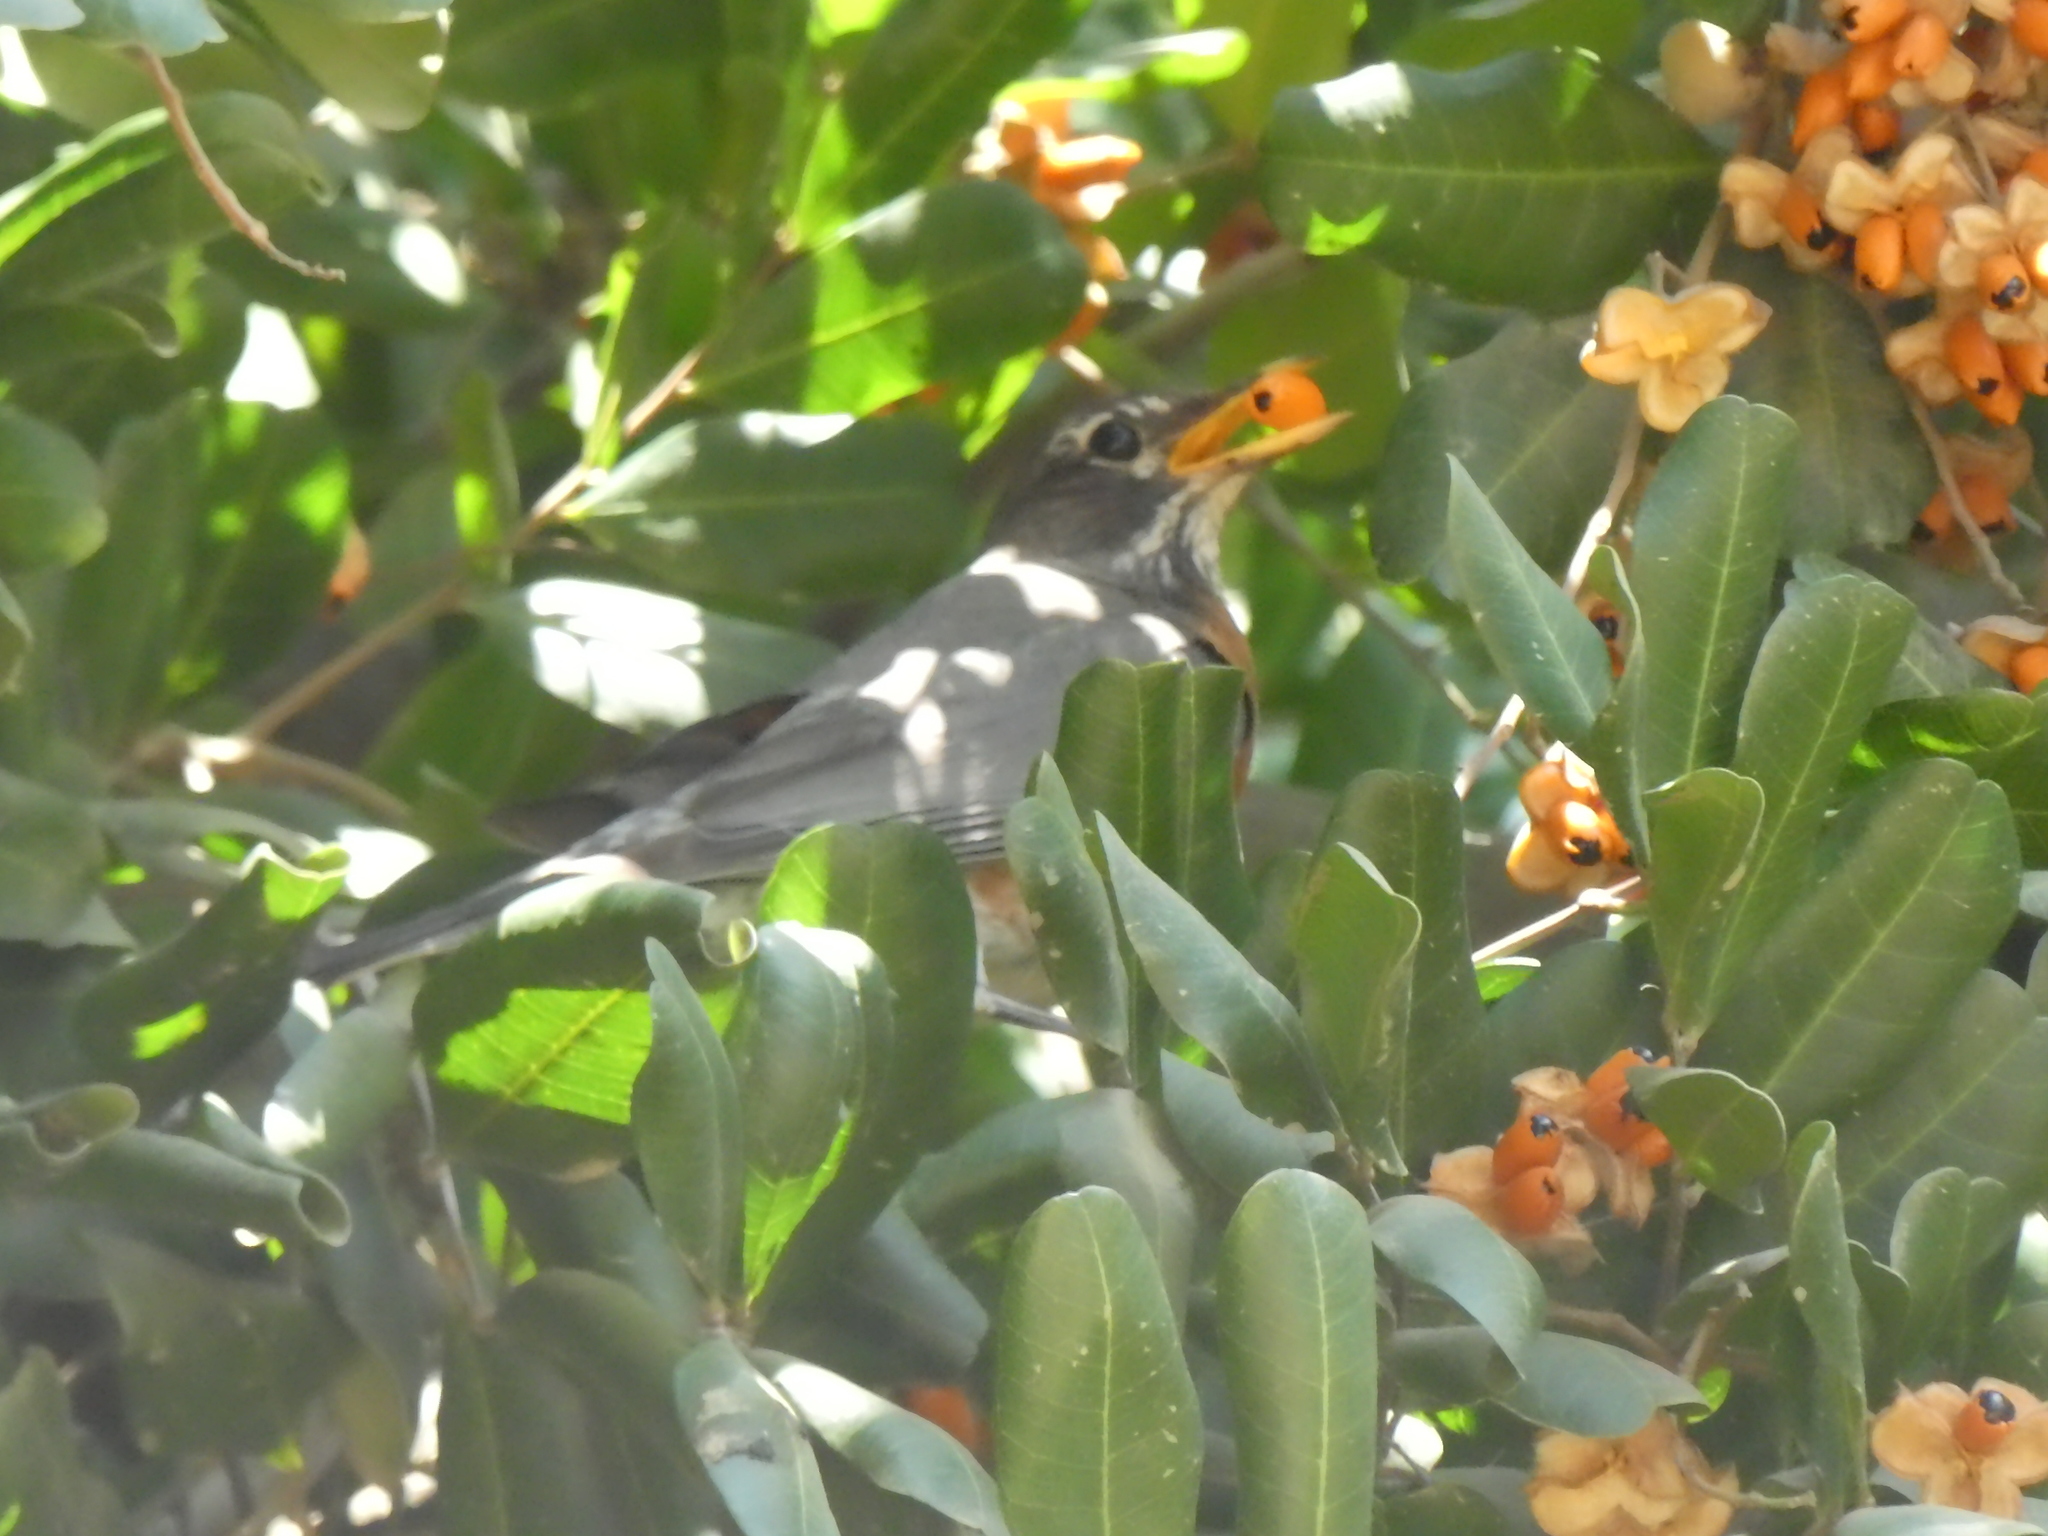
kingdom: Animalia
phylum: Chordata
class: Aves
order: Passeriformes
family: Turdidae
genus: Turdus
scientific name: Turdus migratorius
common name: American robin
